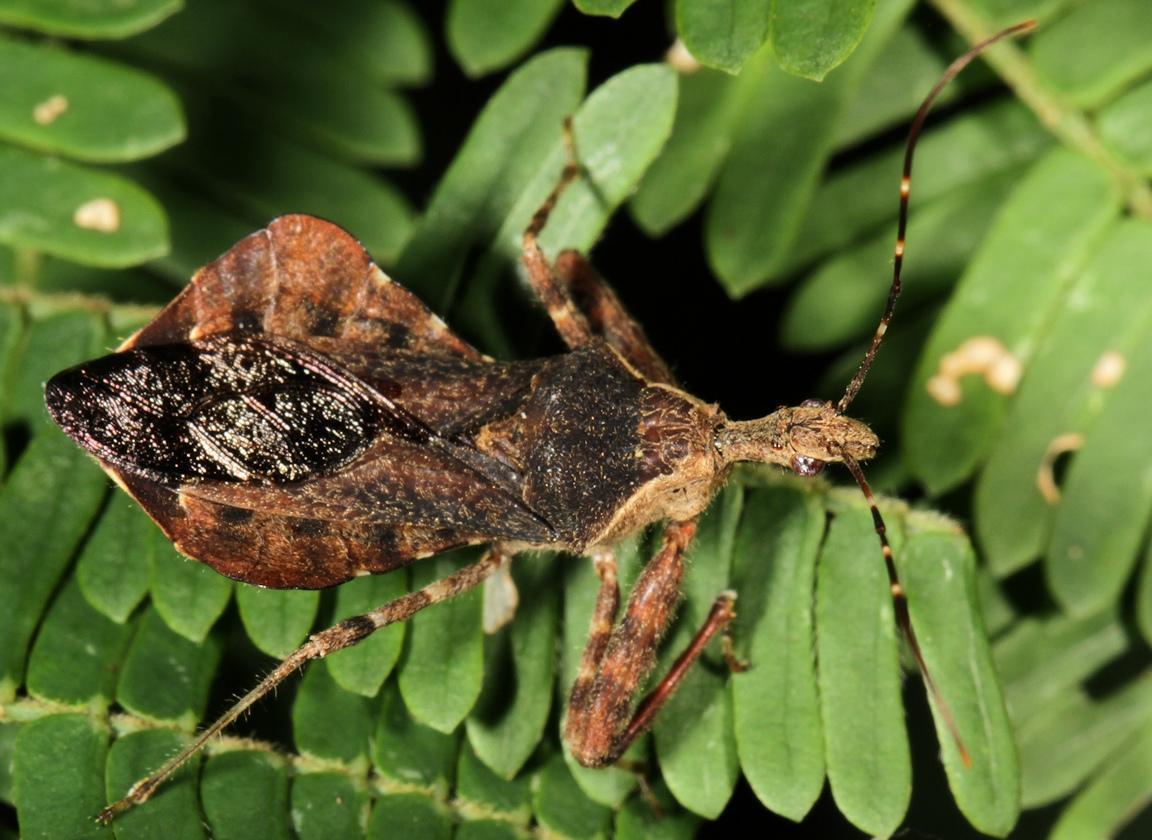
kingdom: Animalia
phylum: Arthropoda
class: Insecta
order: Hemiptera
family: Reduviidae
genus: Vadimon
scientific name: Vadimon bergrothi
